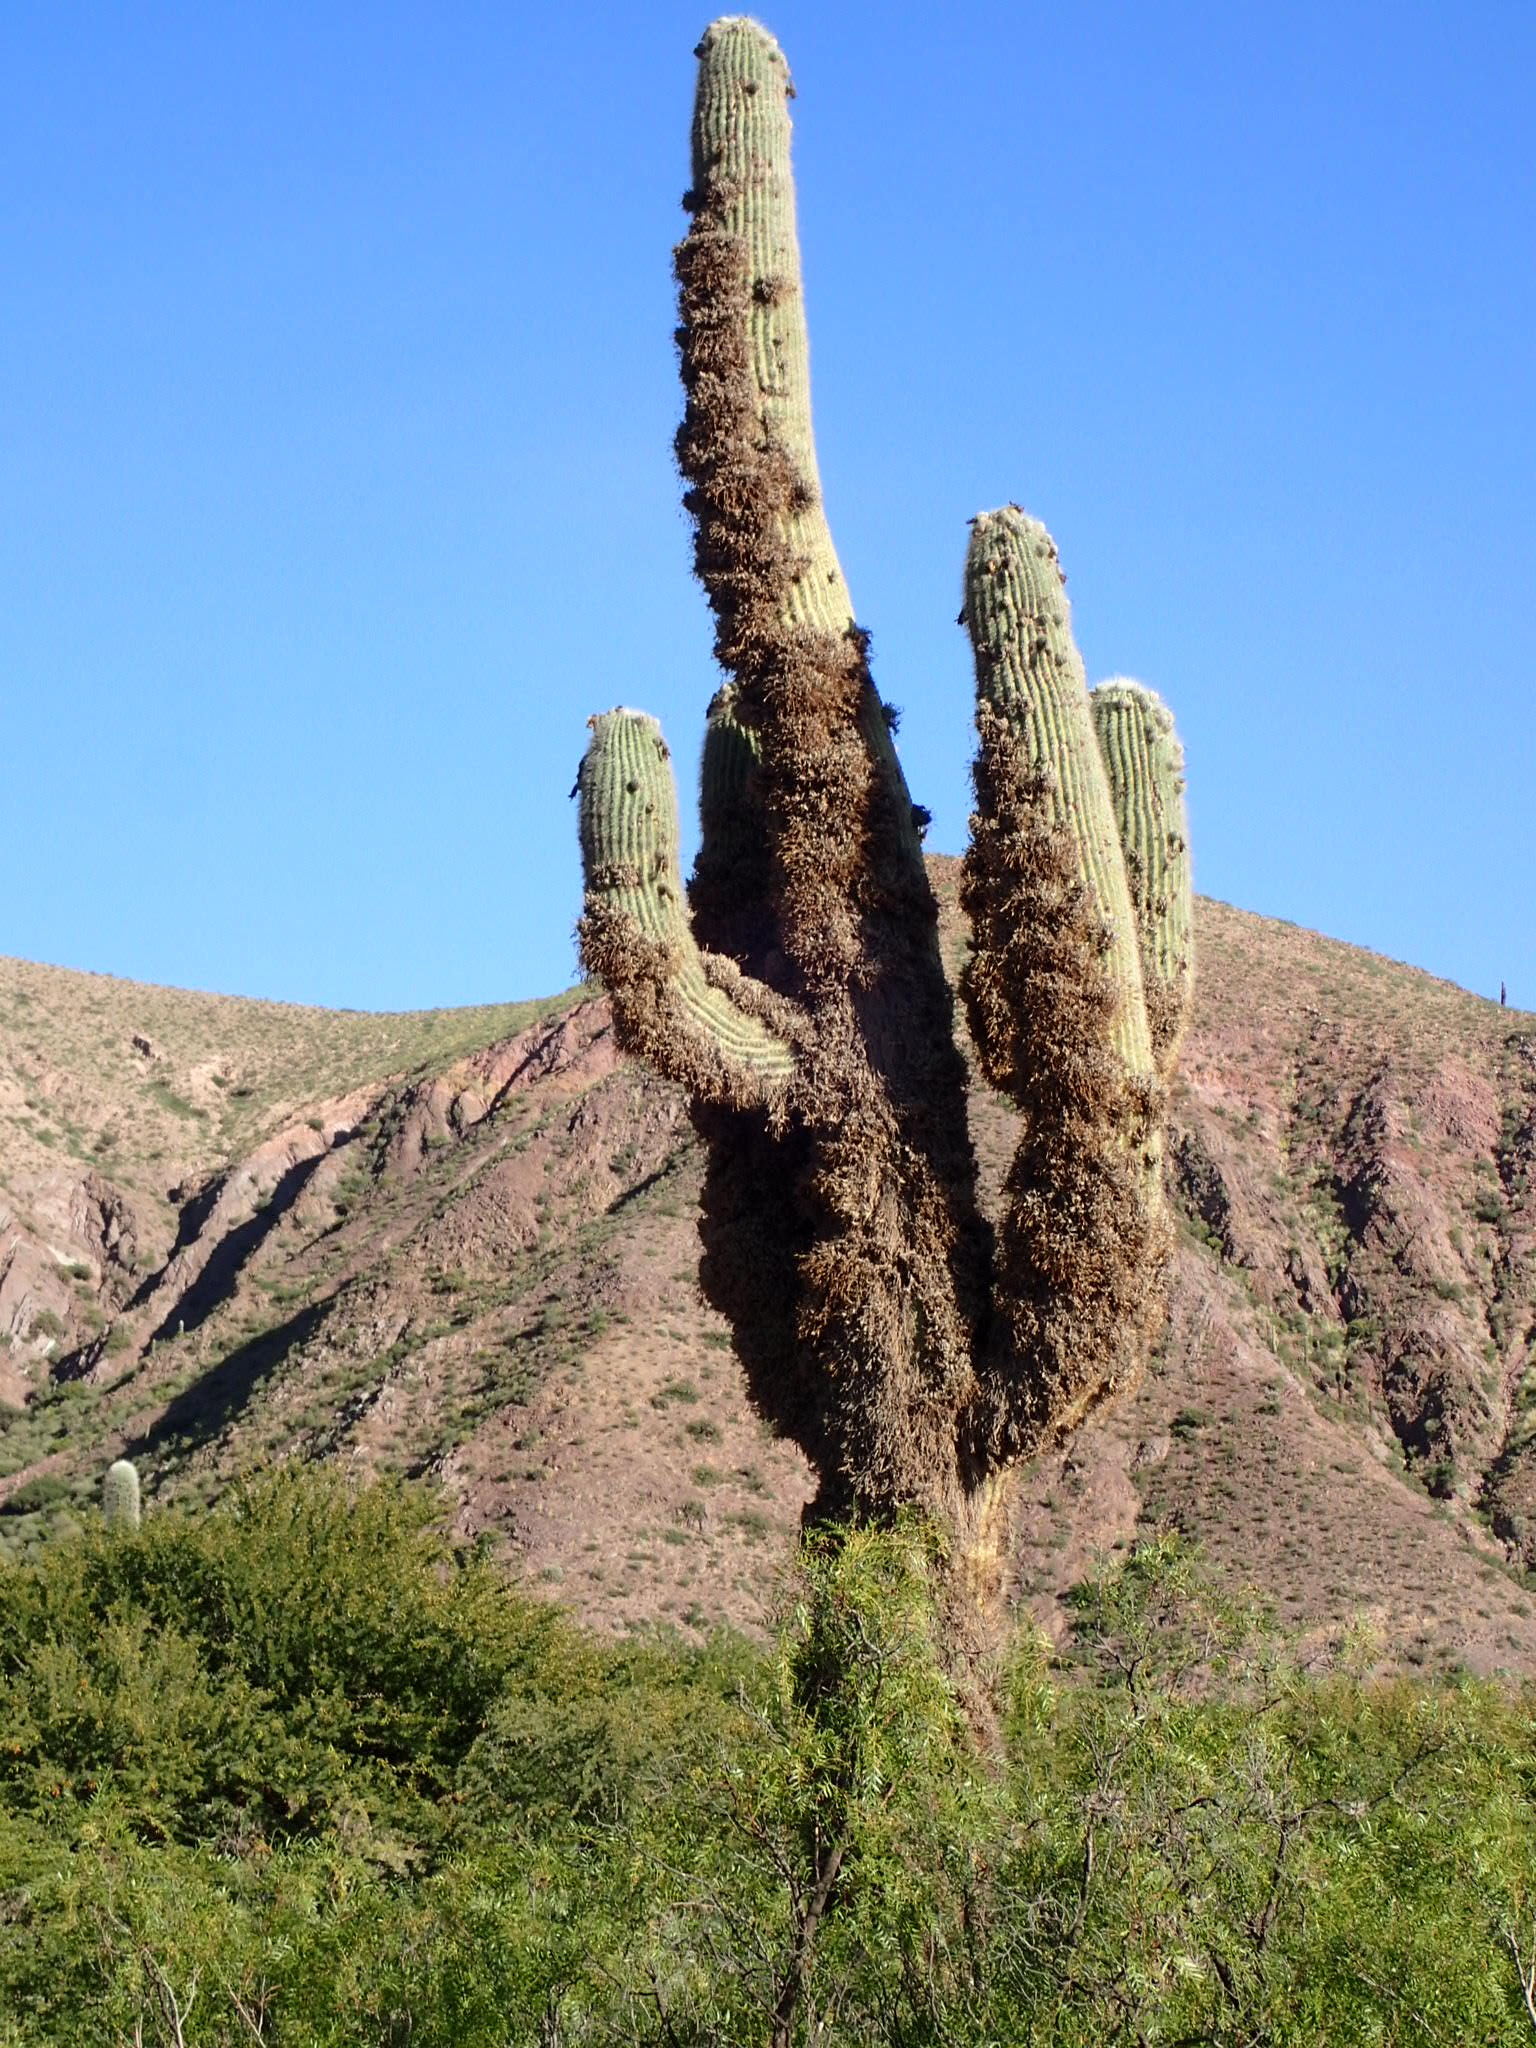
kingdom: Plantae
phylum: Tracheophyta
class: Magnoliopsida
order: Caryophyllales
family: Cactaceae
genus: Leucostele
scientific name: Leucostele atacamensis
